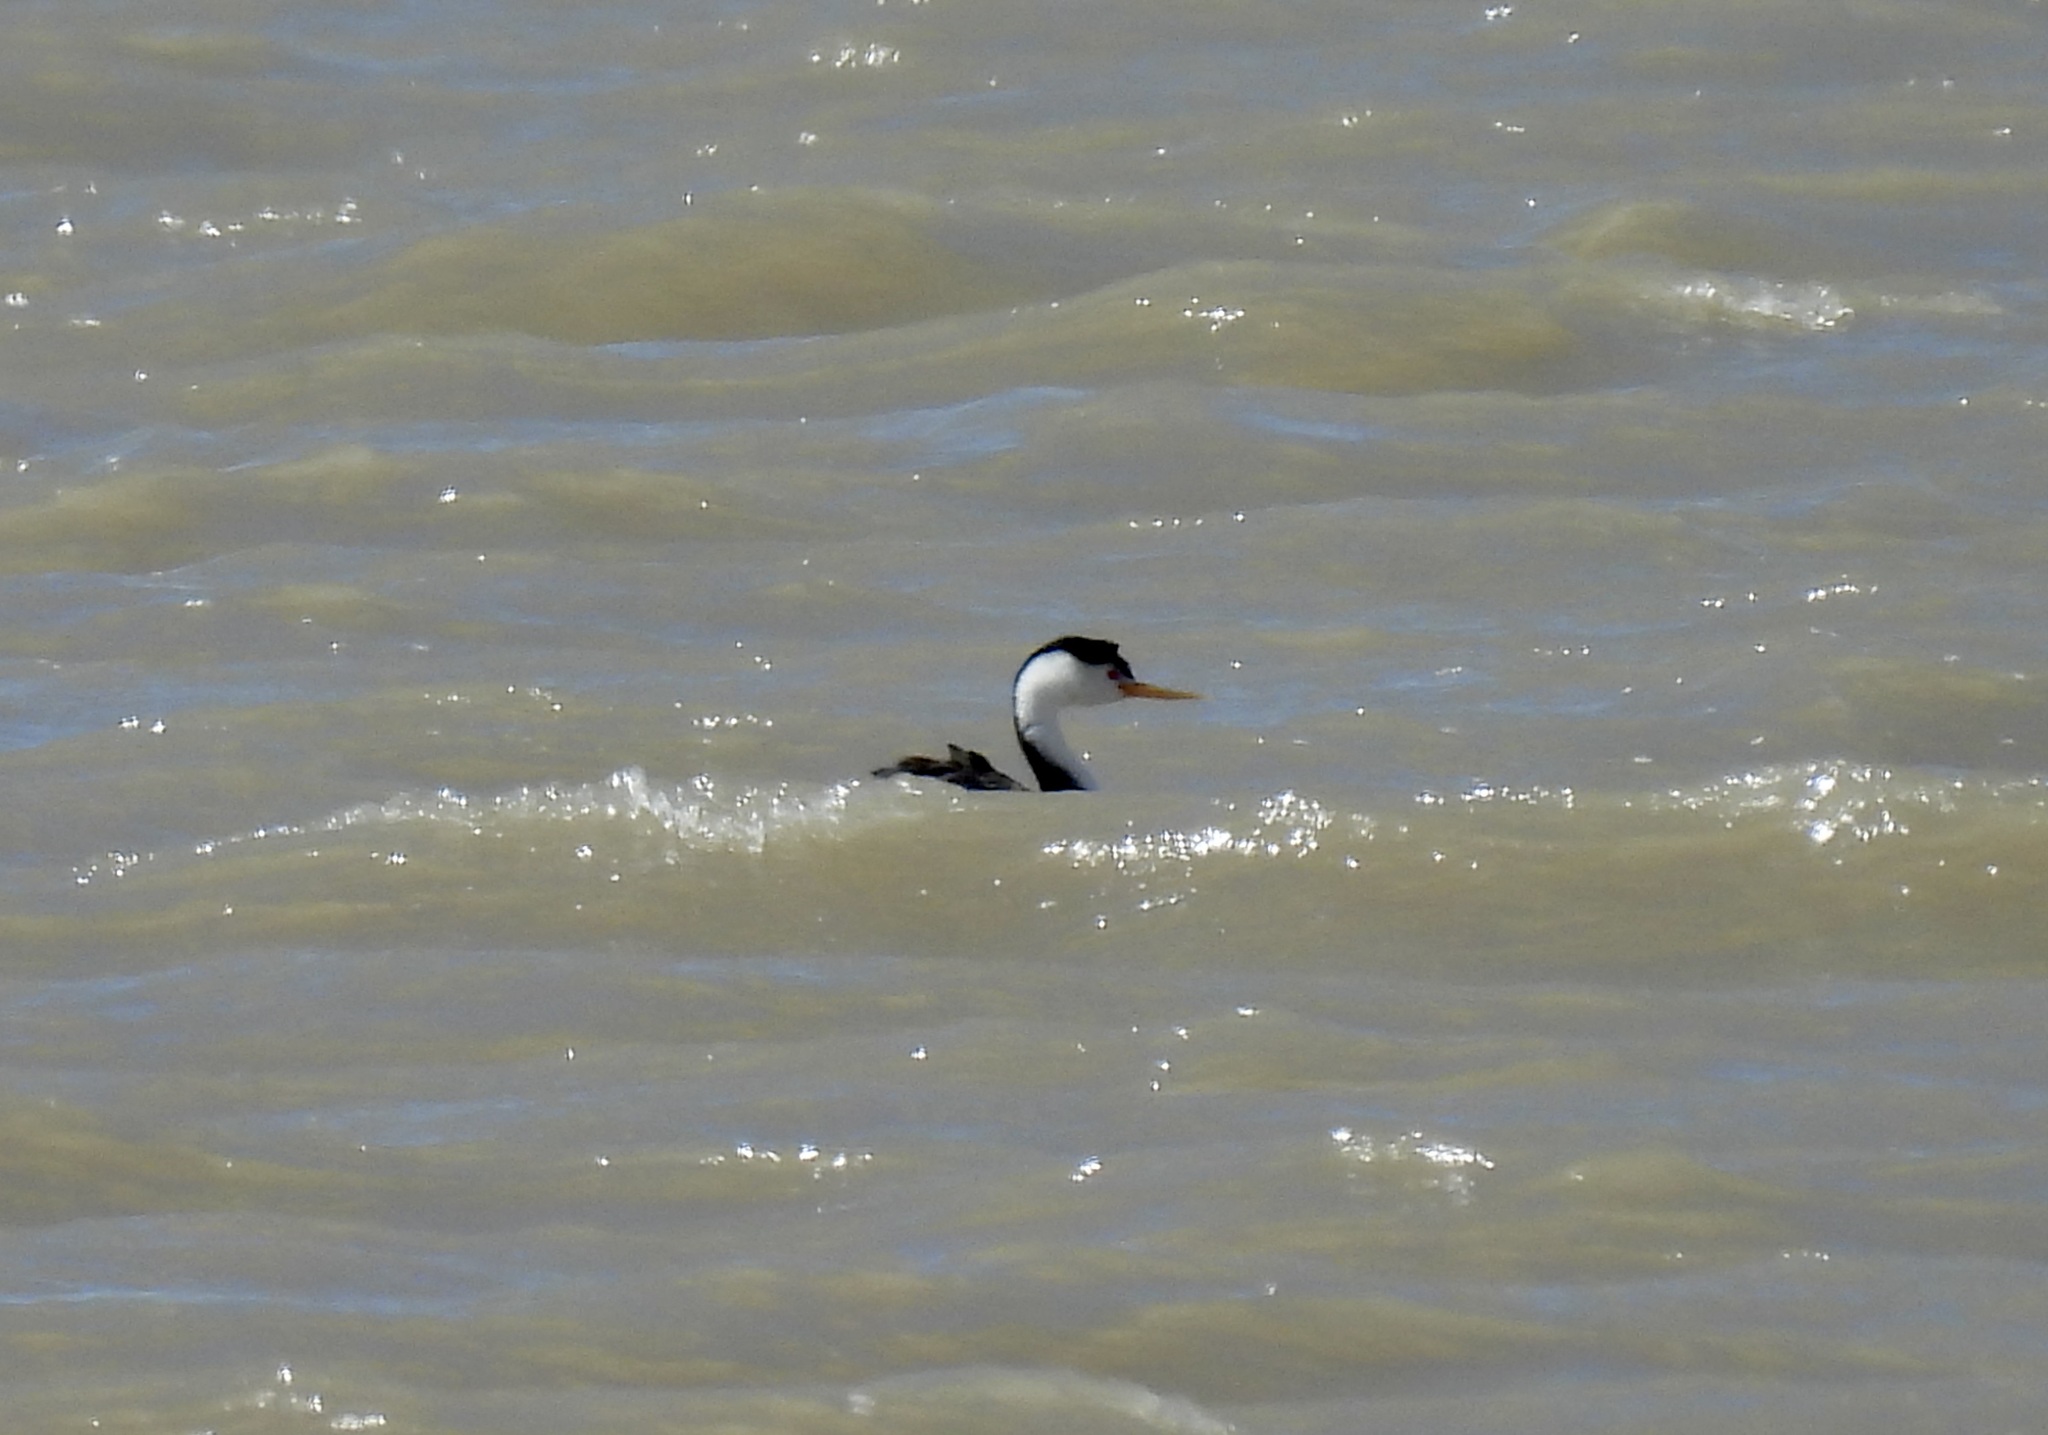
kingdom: Animalia
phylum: Chordata
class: Aves
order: Podicipediformes
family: Podicipedidae
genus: Aechmophorus
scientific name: Aechmophorus clarkii
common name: Clark's grebe
